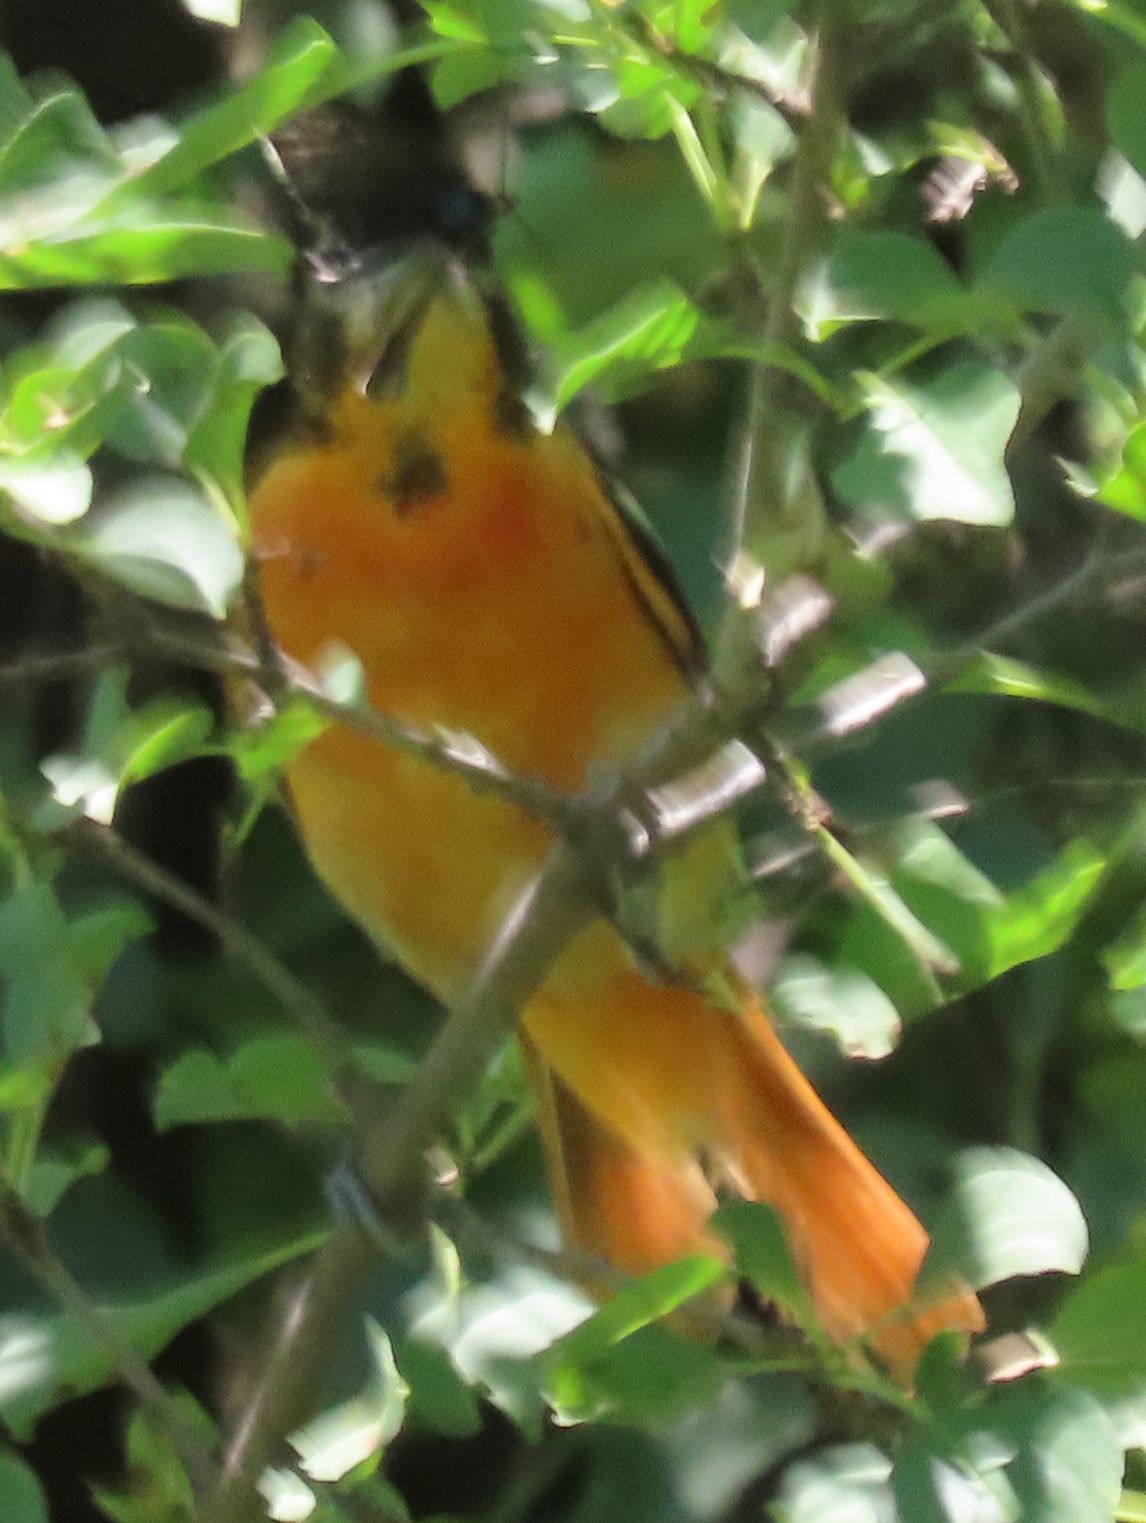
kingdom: Animalia
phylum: Chordata
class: Aves
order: Passeriformes
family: Icteridae
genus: Icterus
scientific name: Icterus galbula
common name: Baltimore oriole
